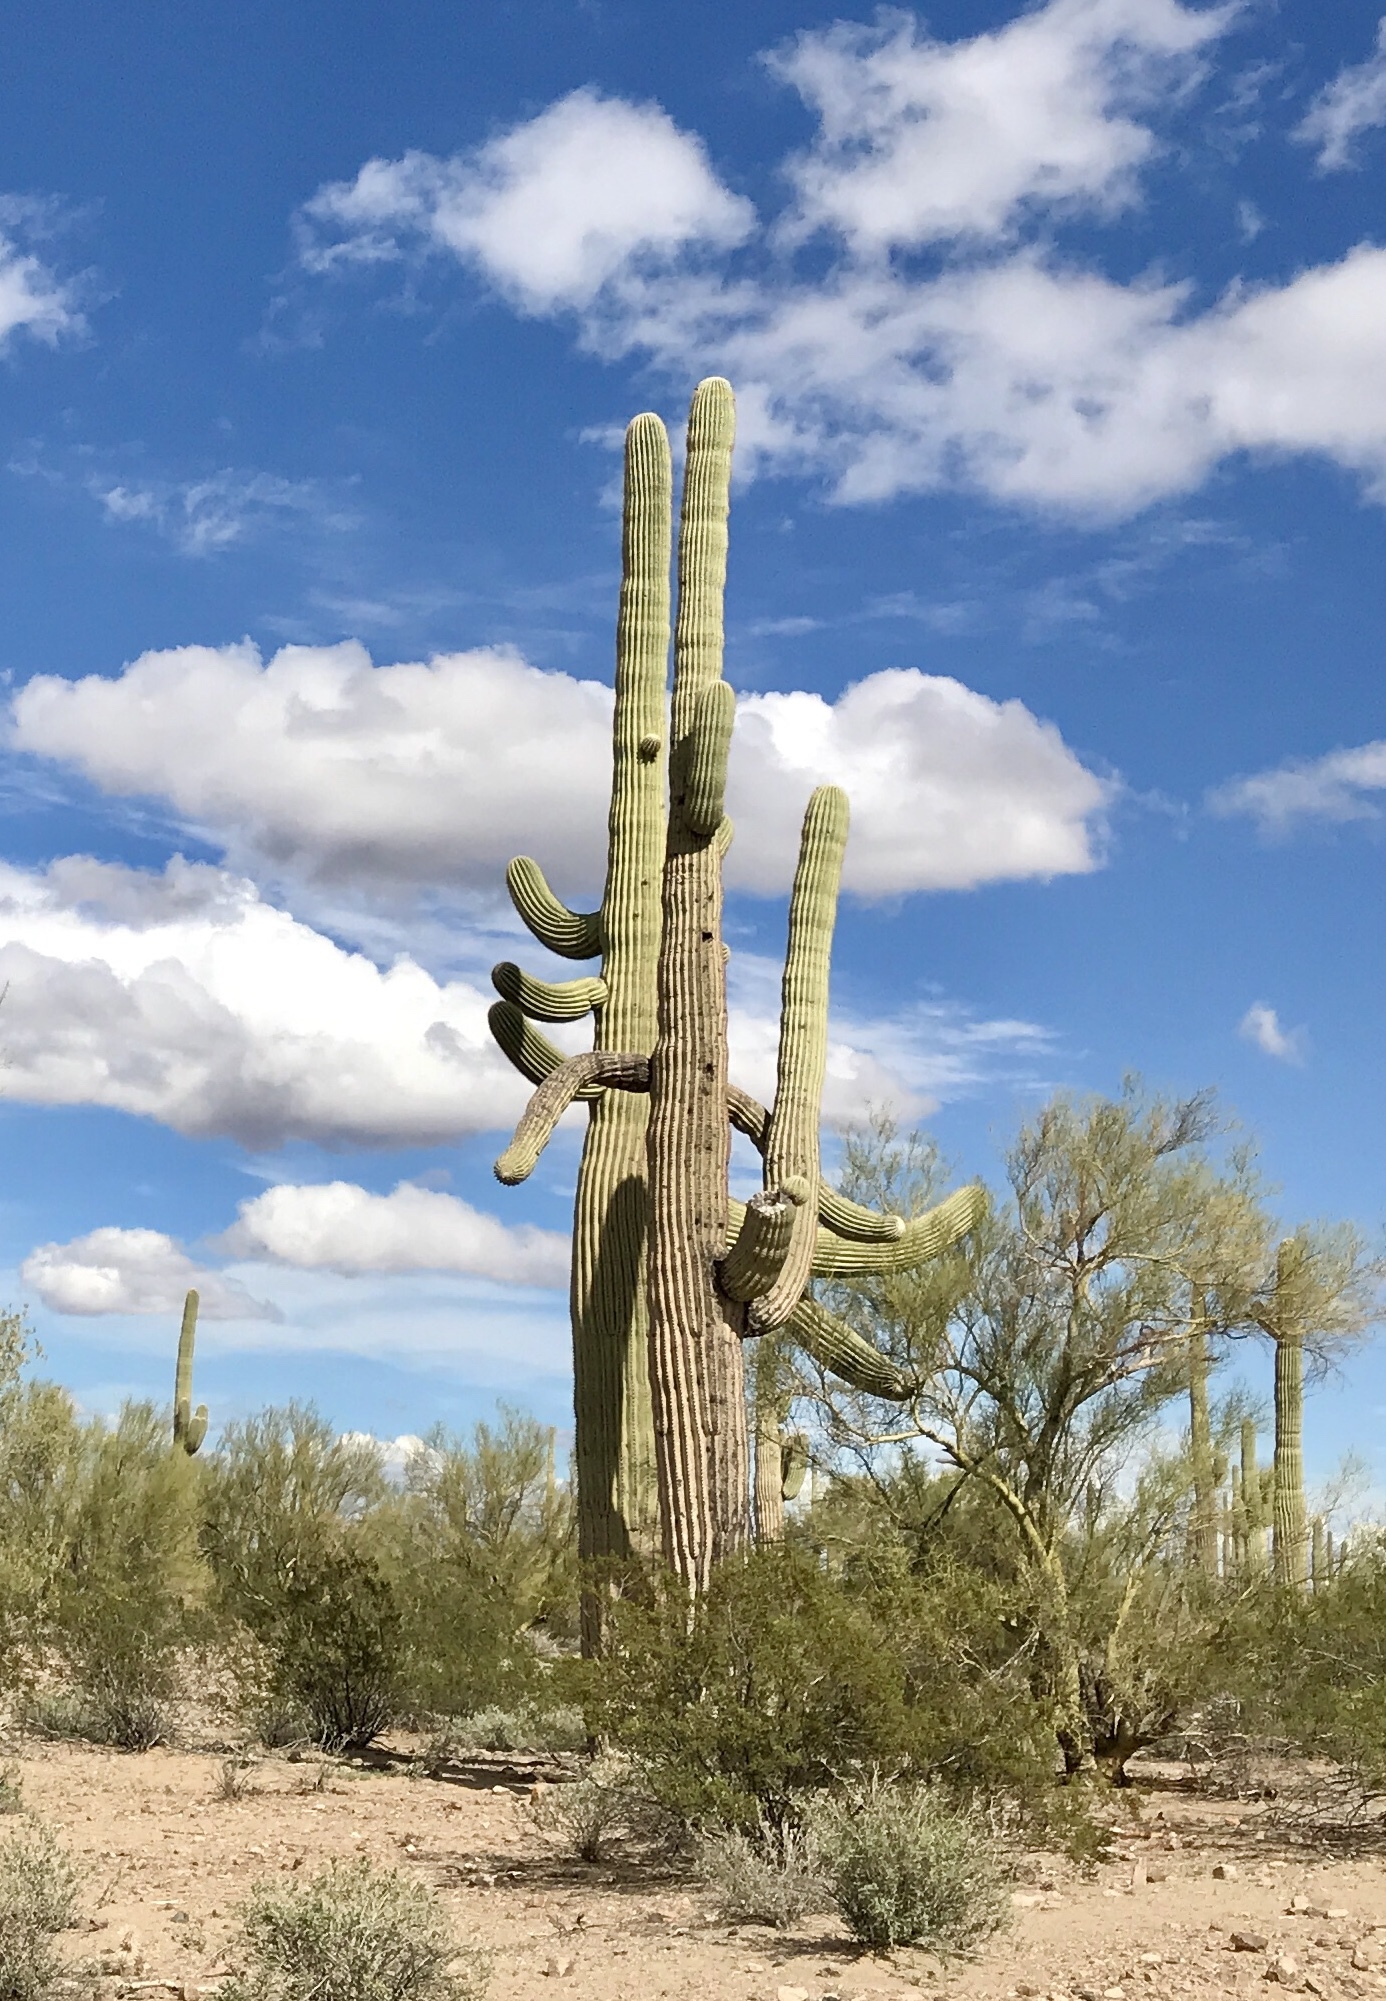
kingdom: Plantae
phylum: Tracheophyta
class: Magnoliopsida
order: Caryophyllales
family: Cactaceae
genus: Carnegiea
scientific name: Carnegiea gigantea
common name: Saguaro
